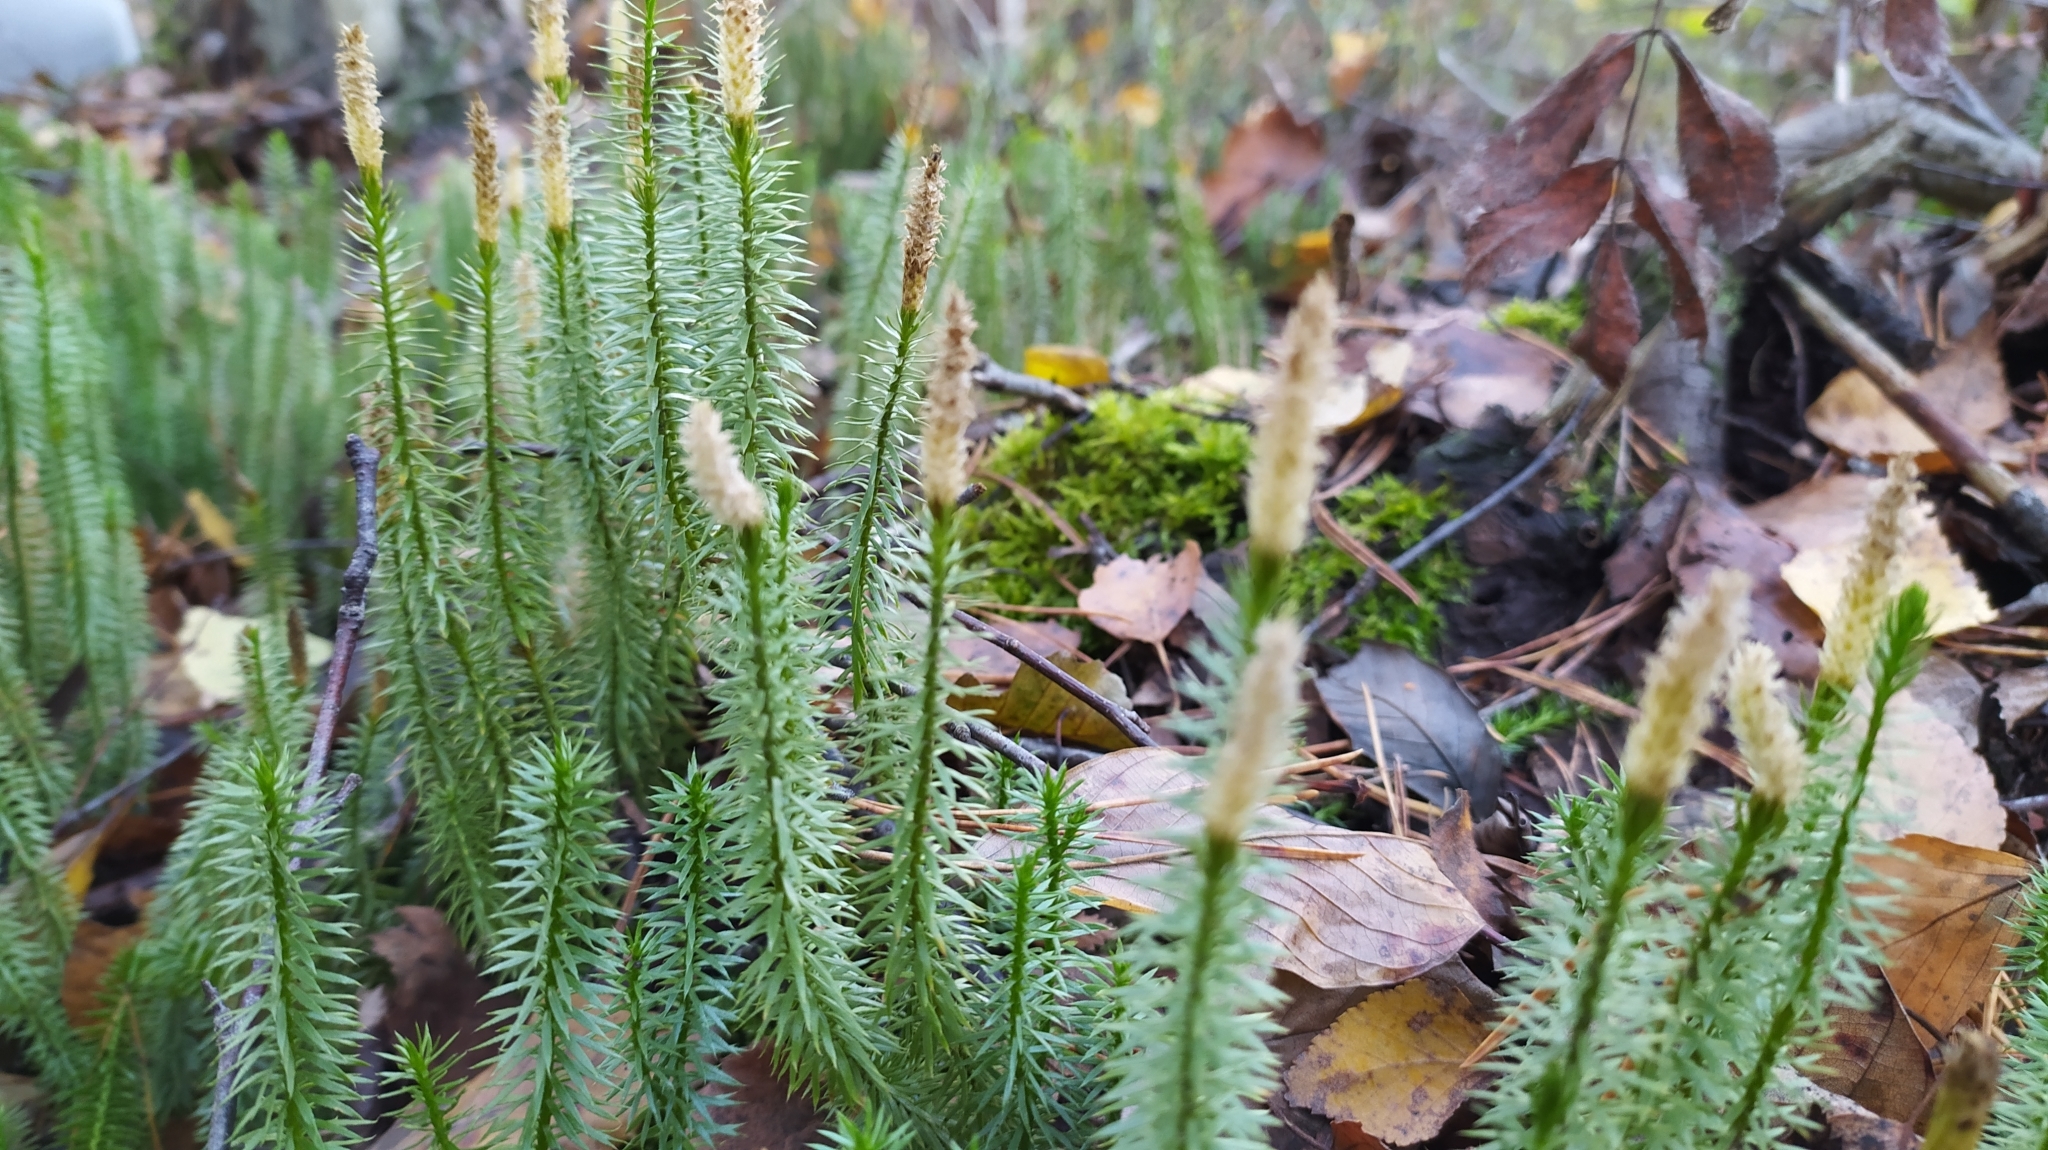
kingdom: Plantae
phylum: Tracheophyta
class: Lycopodiopsida
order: Lycopodiales
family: Lycopodiaceae
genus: Spinulum
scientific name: Spinulum annotinum
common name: Interrupted club-moss
